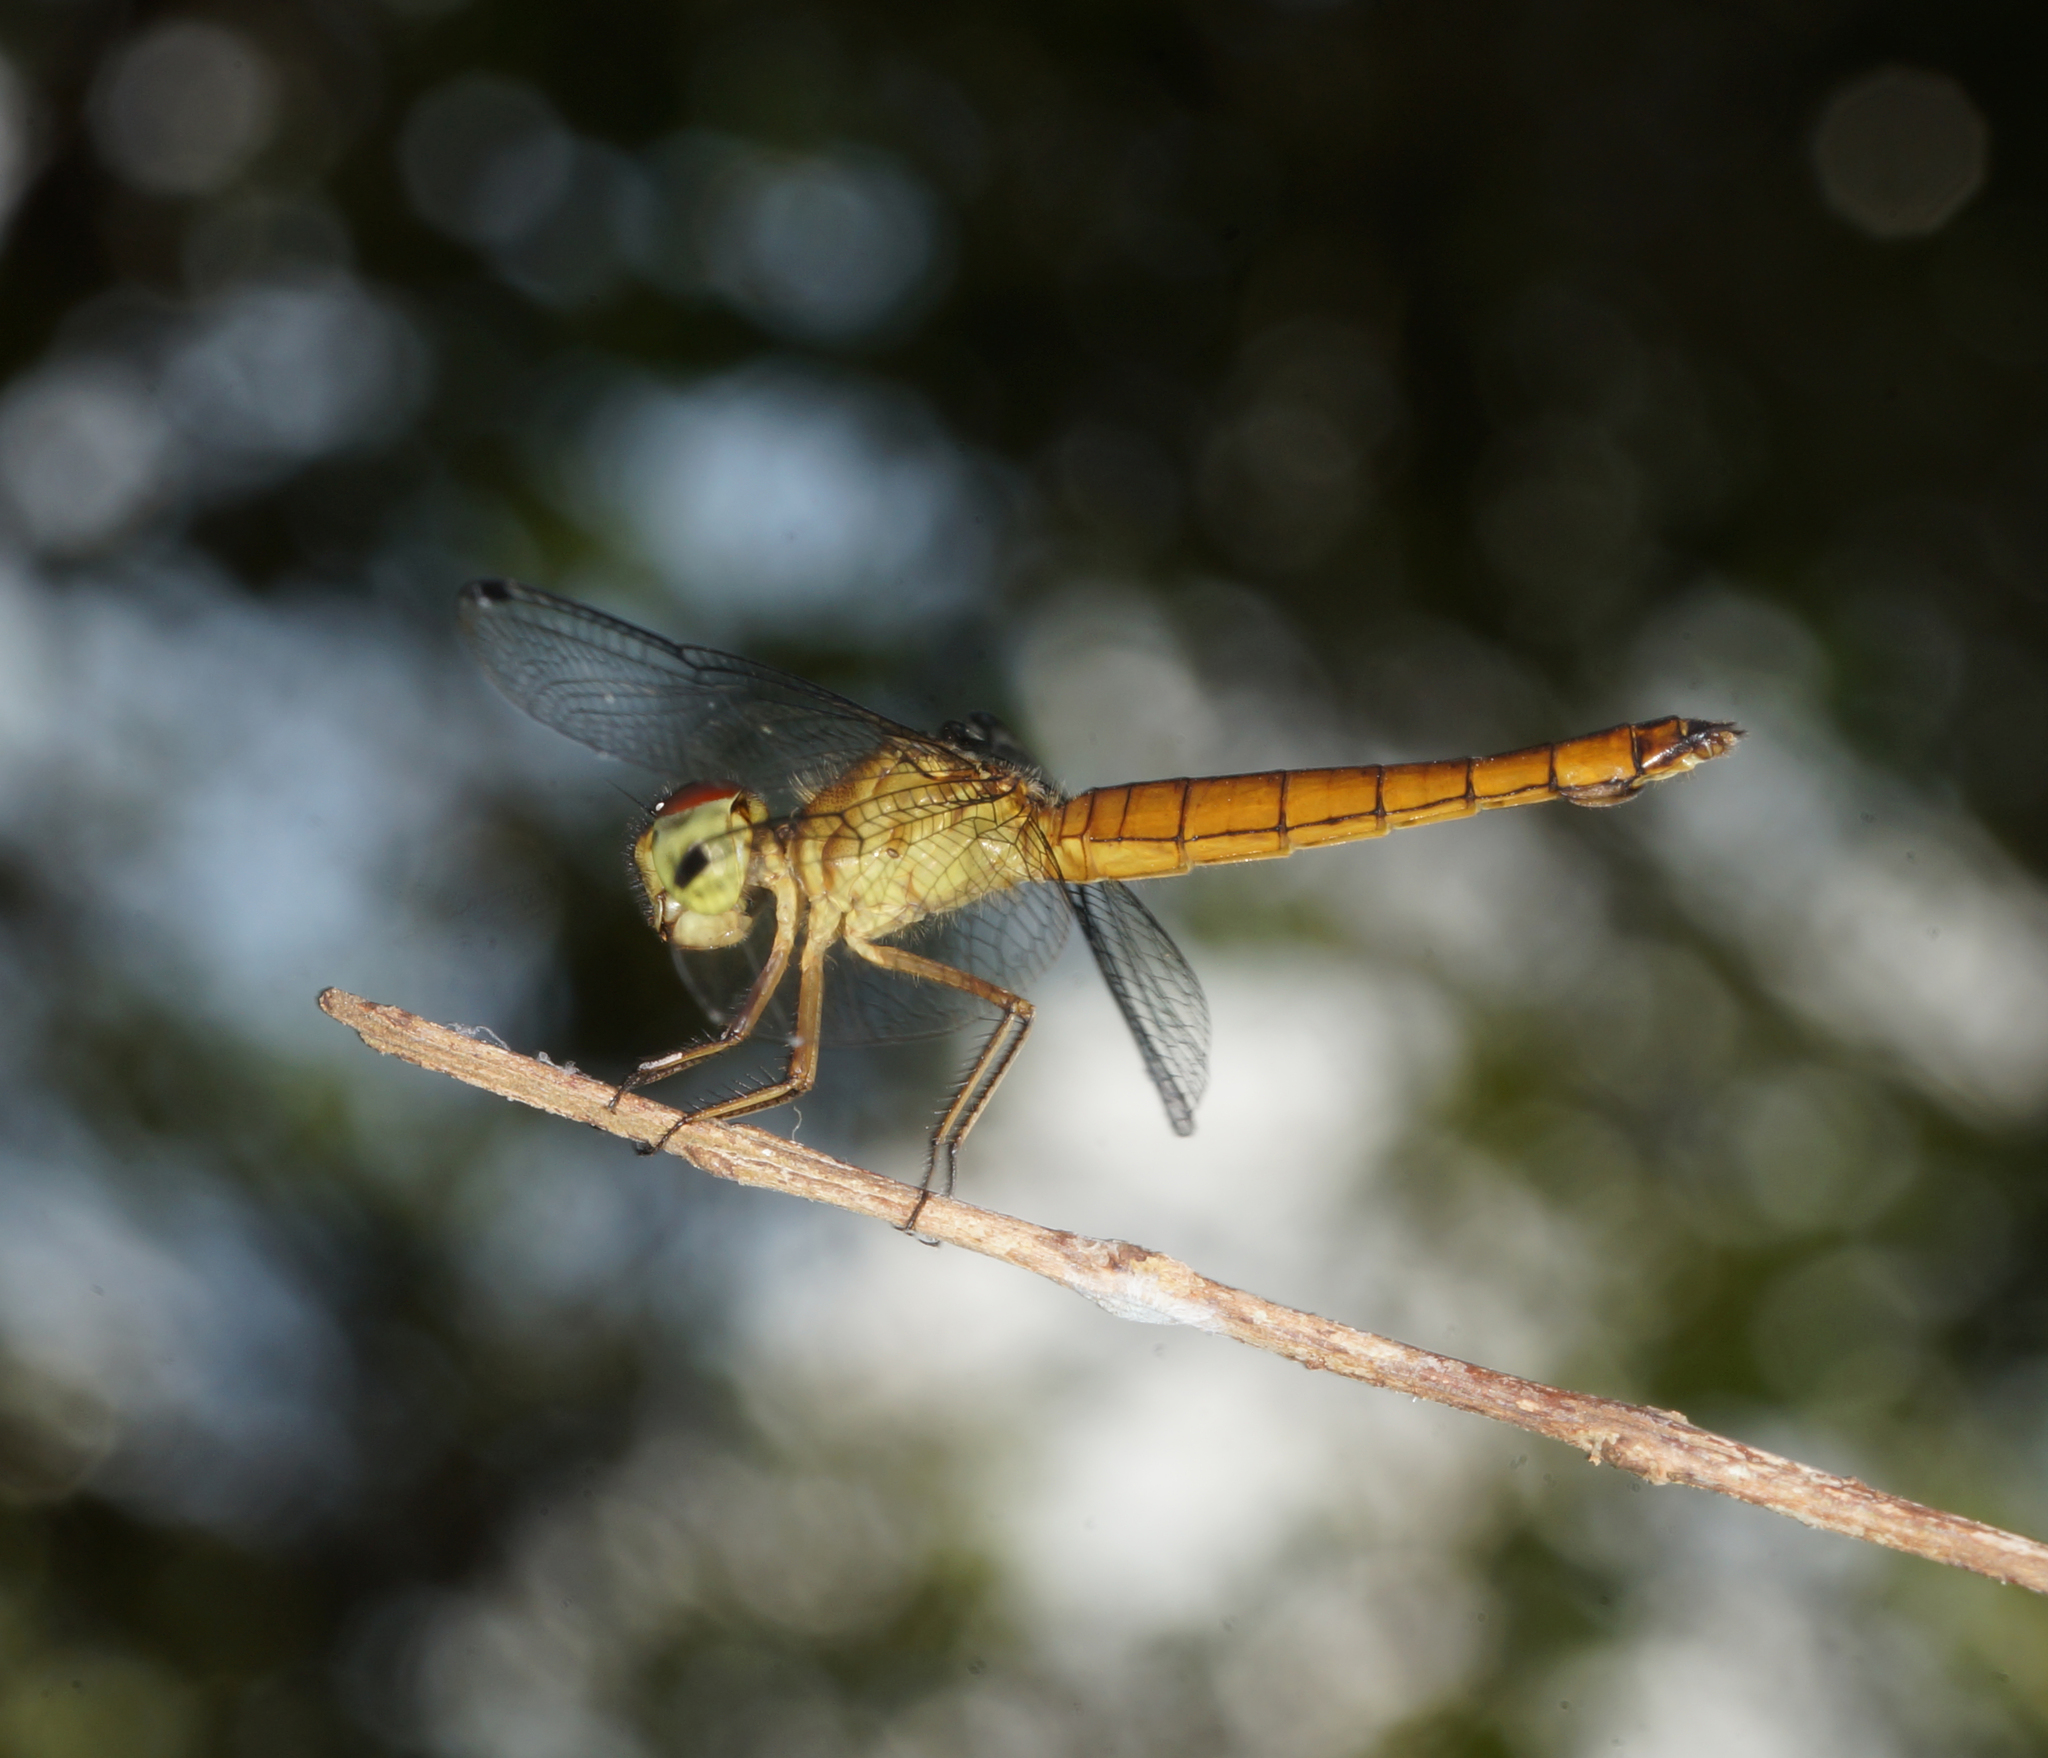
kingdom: Animalia
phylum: Arthropoda
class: Insecta
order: Odonata
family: Libellulidae
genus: Orchithemis
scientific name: Orchithemis pulcherrima
